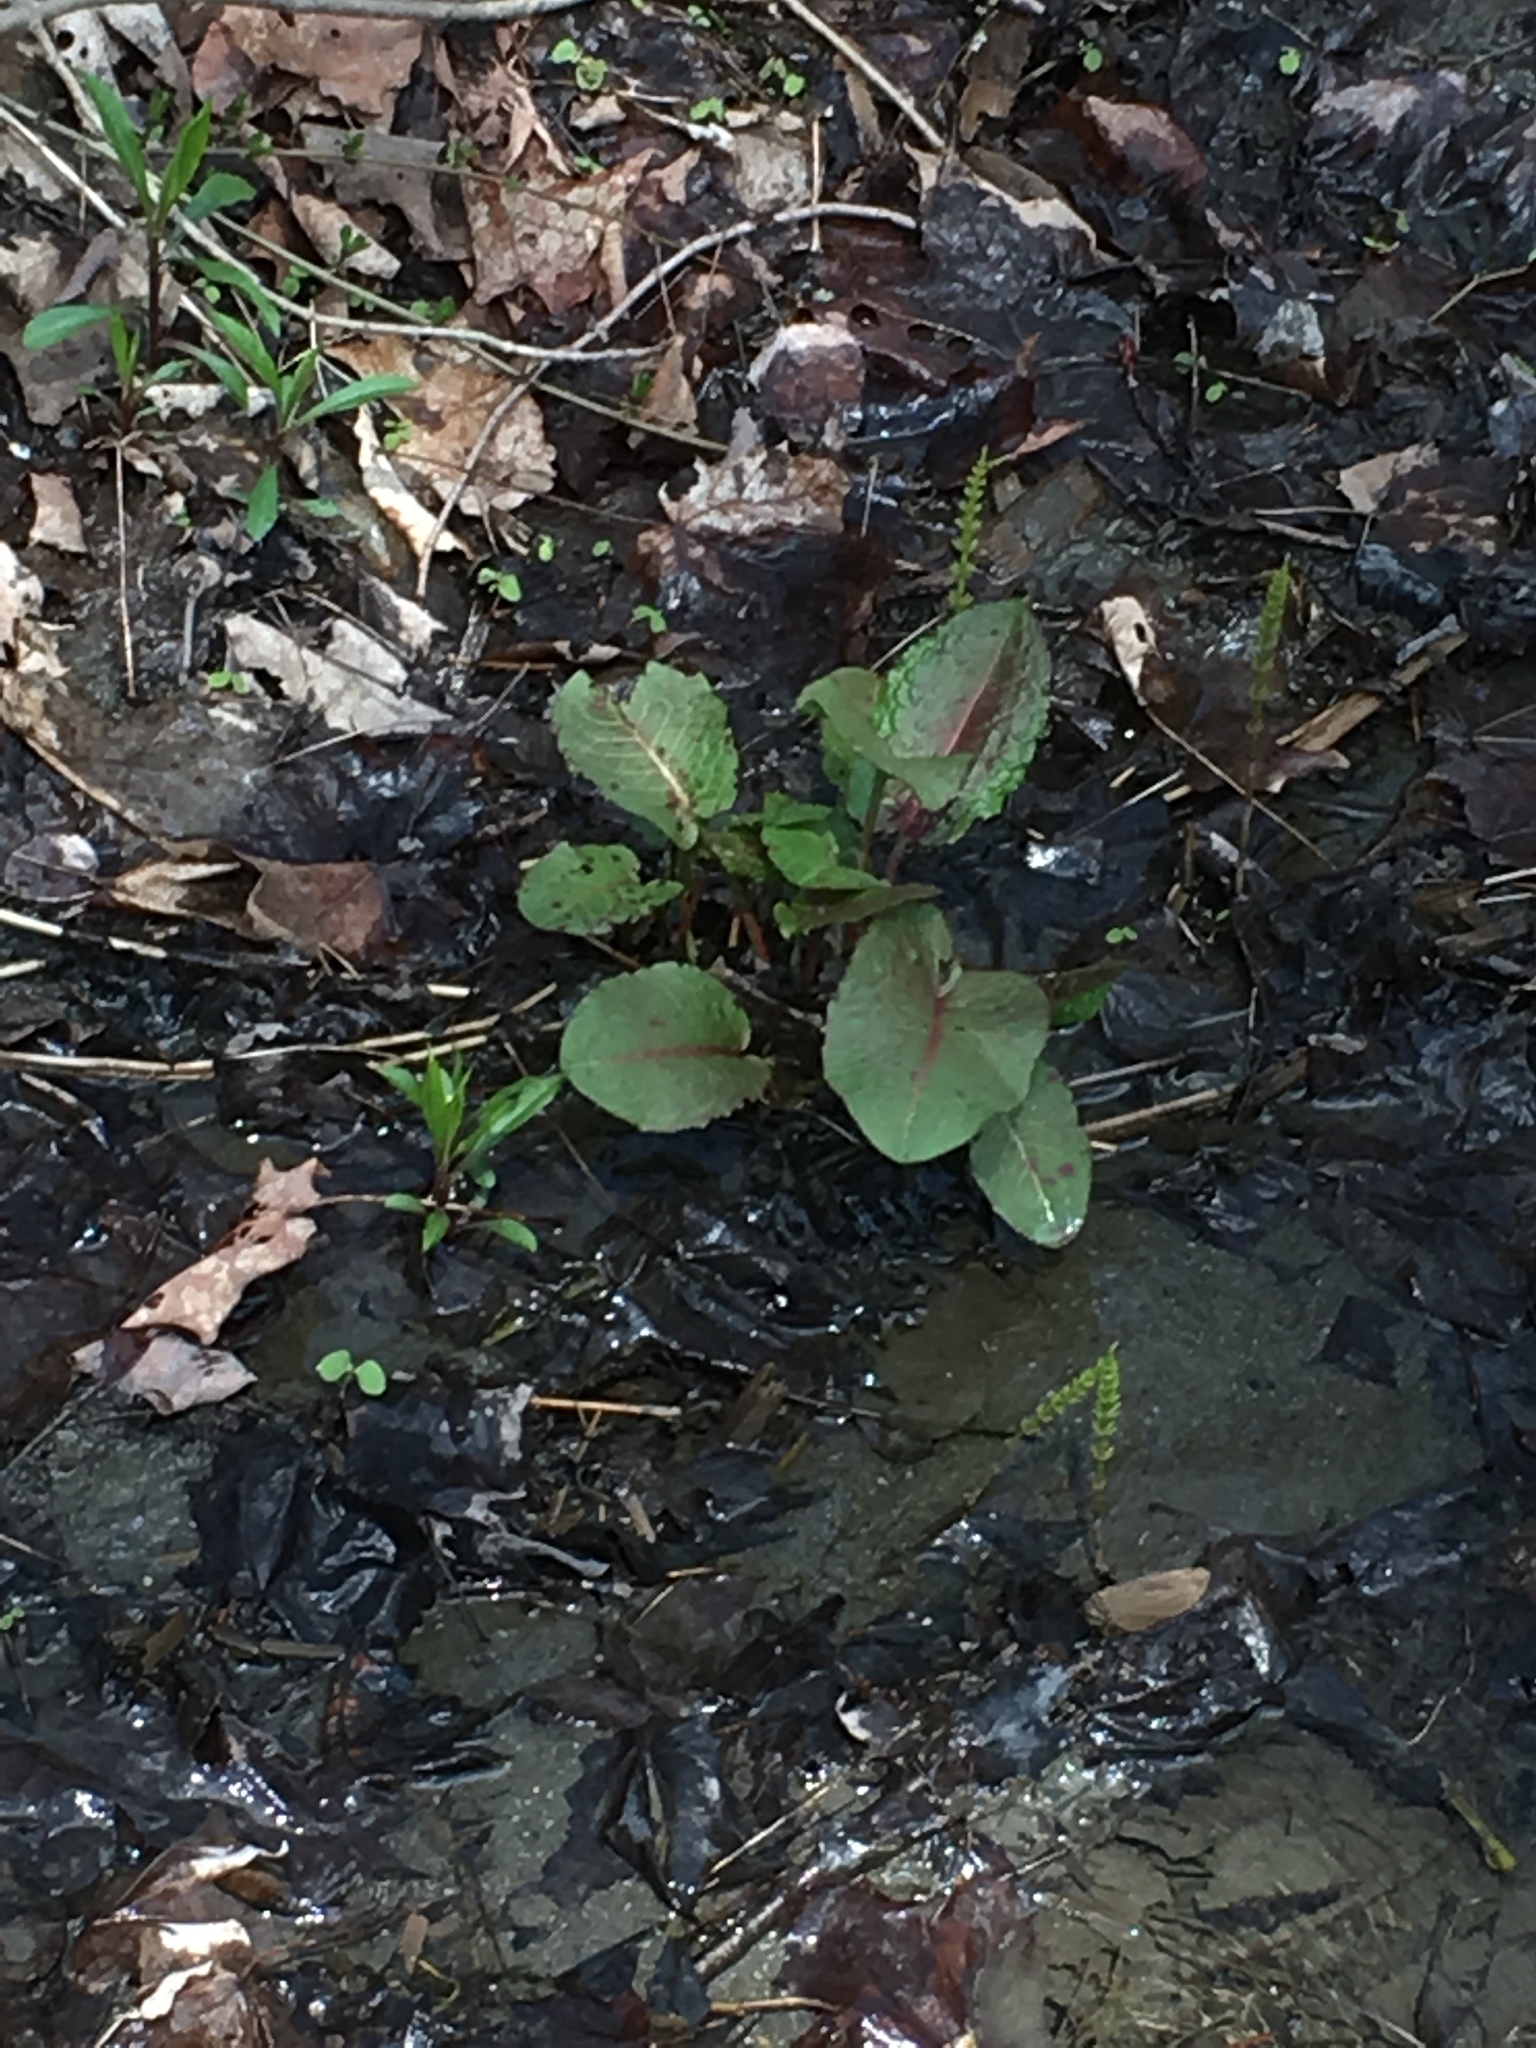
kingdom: Plantae
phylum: Tracheophyta
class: Magnoliopsida
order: Caryophyllales
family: Polygonaceae
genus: Rumex
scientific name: Rumex obtusifolius
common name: Bitter dock
